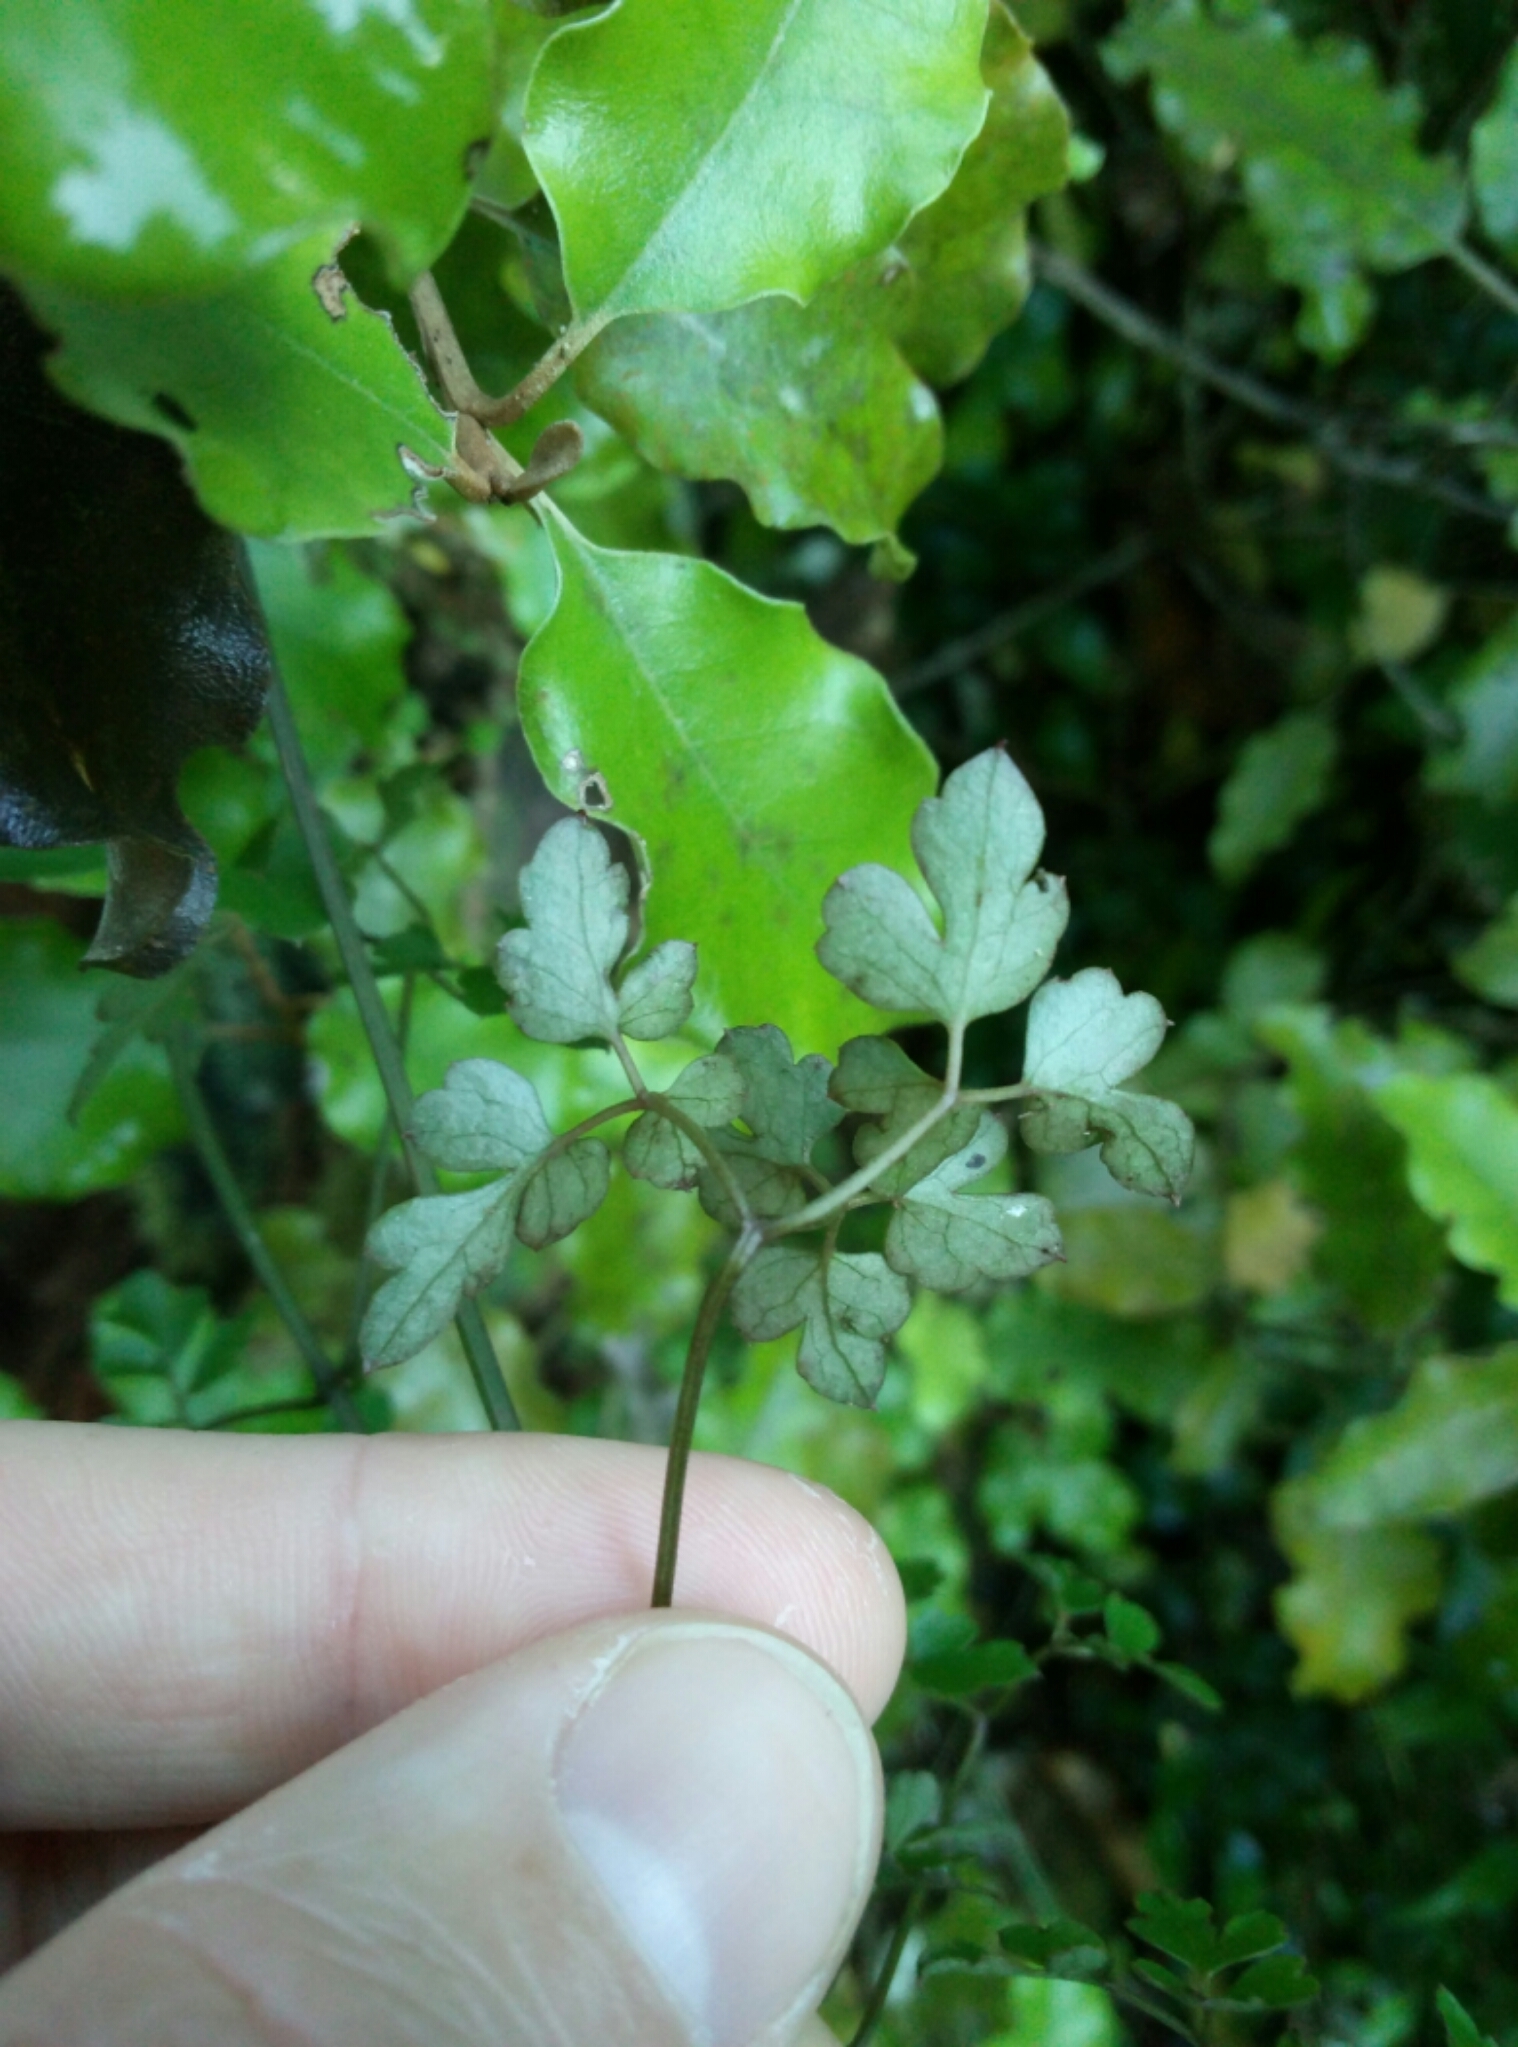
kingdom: Plantae
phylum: Tracheophyta
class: Magnoliopsida
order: Ranunculales
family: Ranunculaceae
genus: Clematis
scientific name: Clematis forsteri
